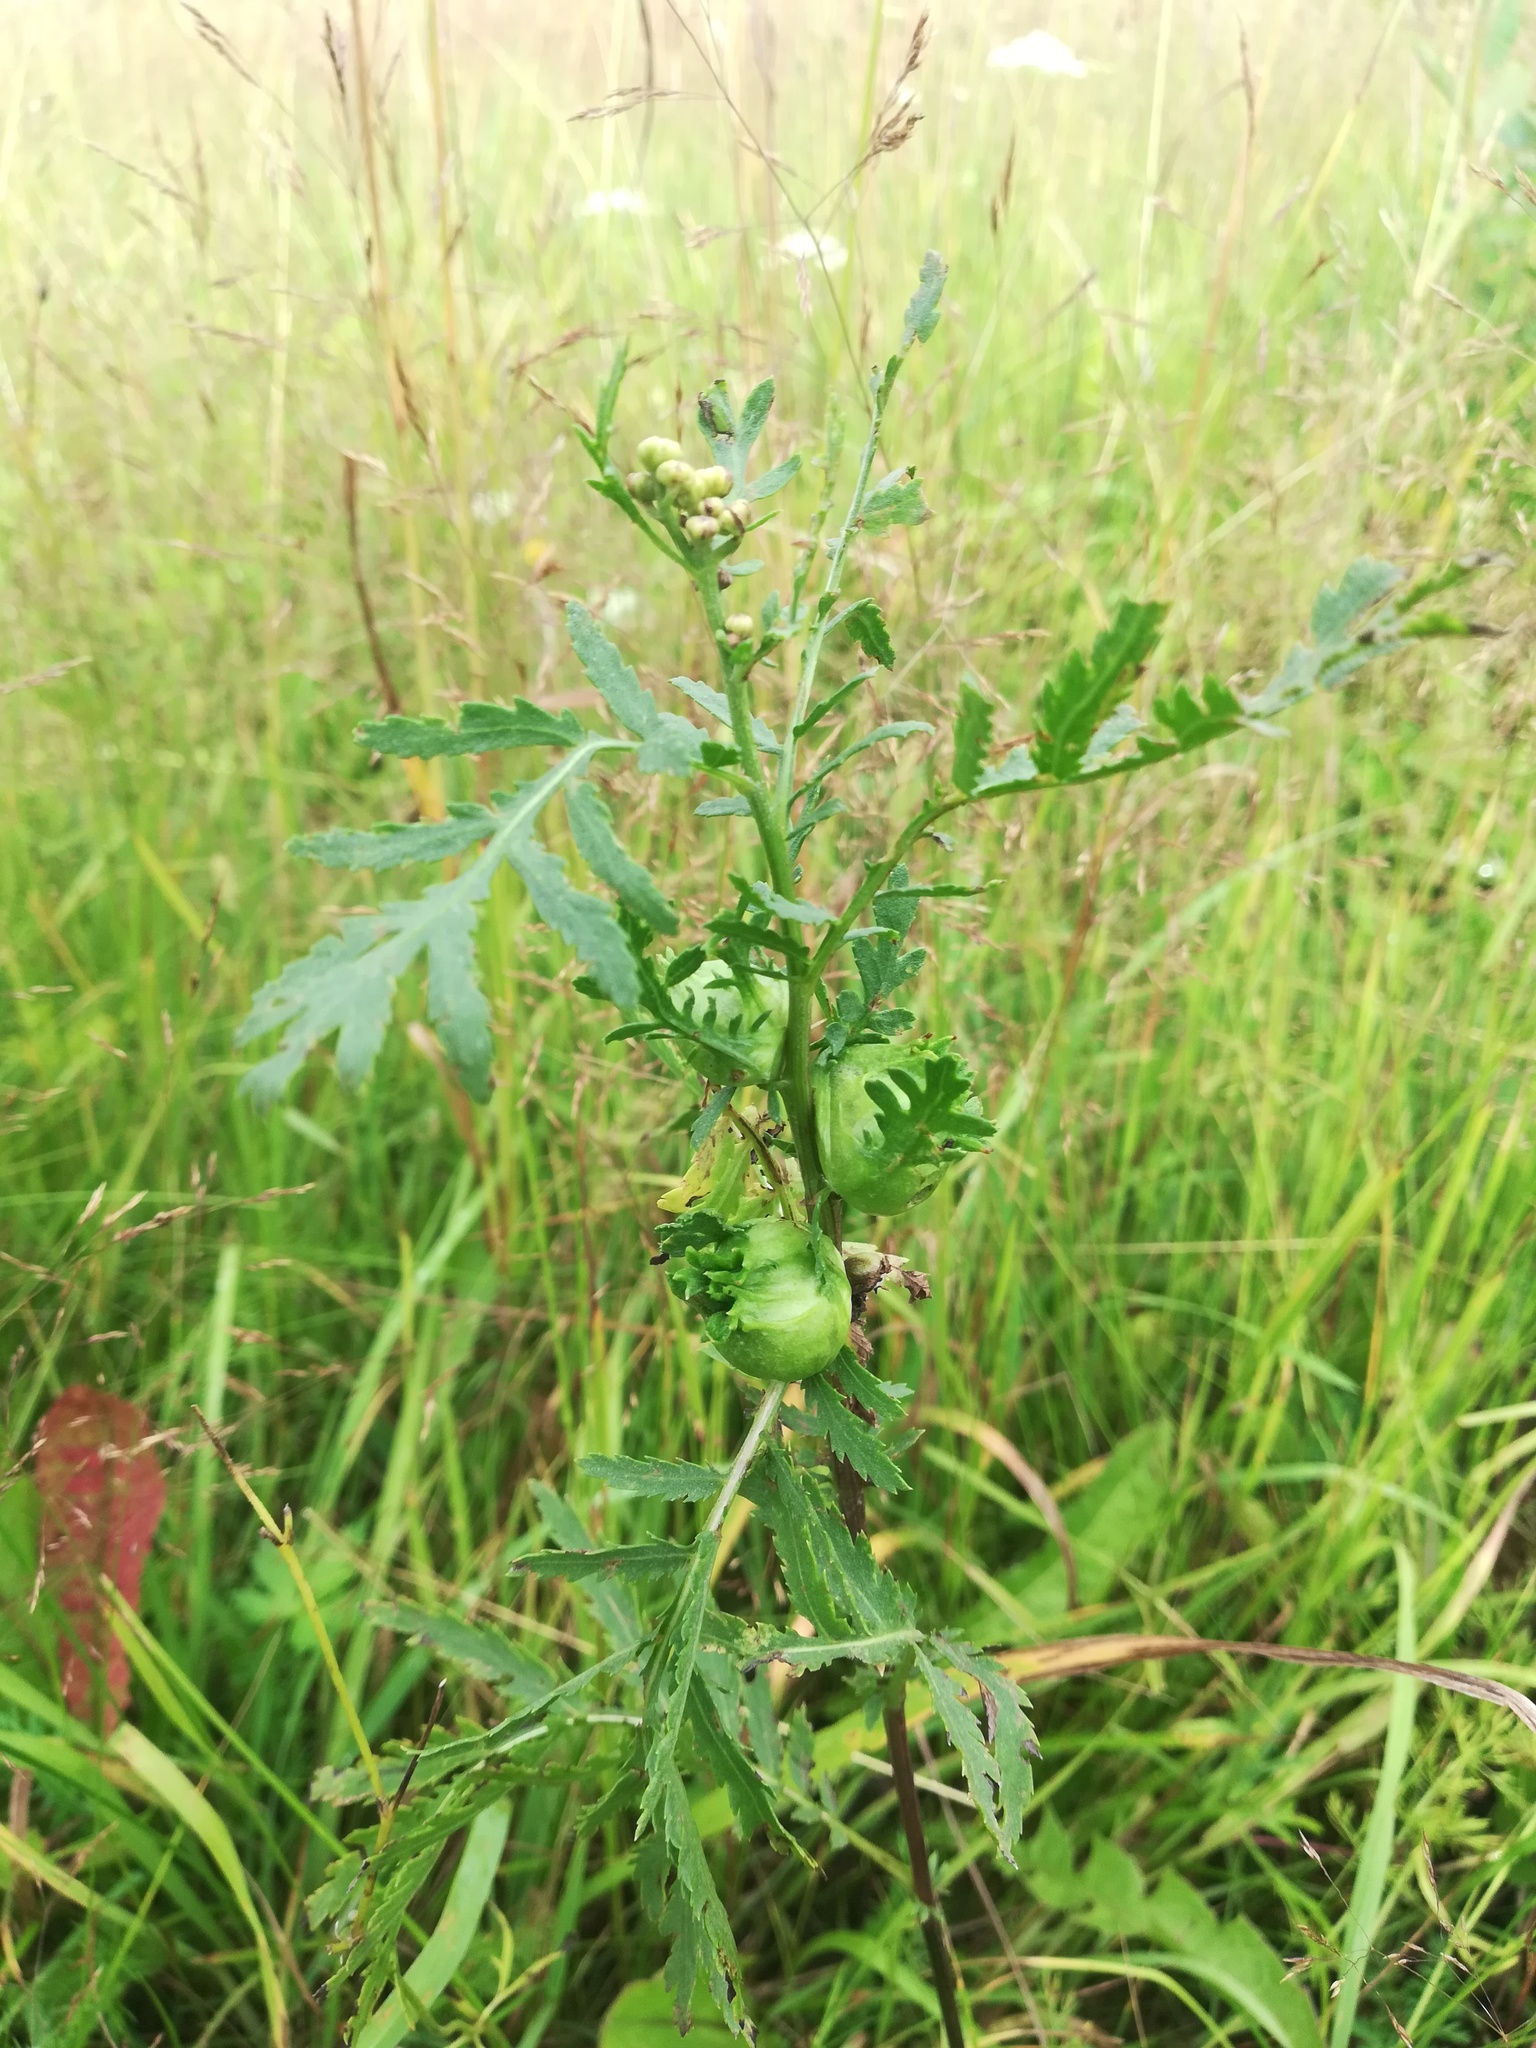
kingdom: Plantae
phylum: Tracheophyta
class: Magnoliopsida
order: Asterales
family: Asteraceae
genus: Tanacetum
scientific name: Tanacetum vulgare
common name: Common tansy
